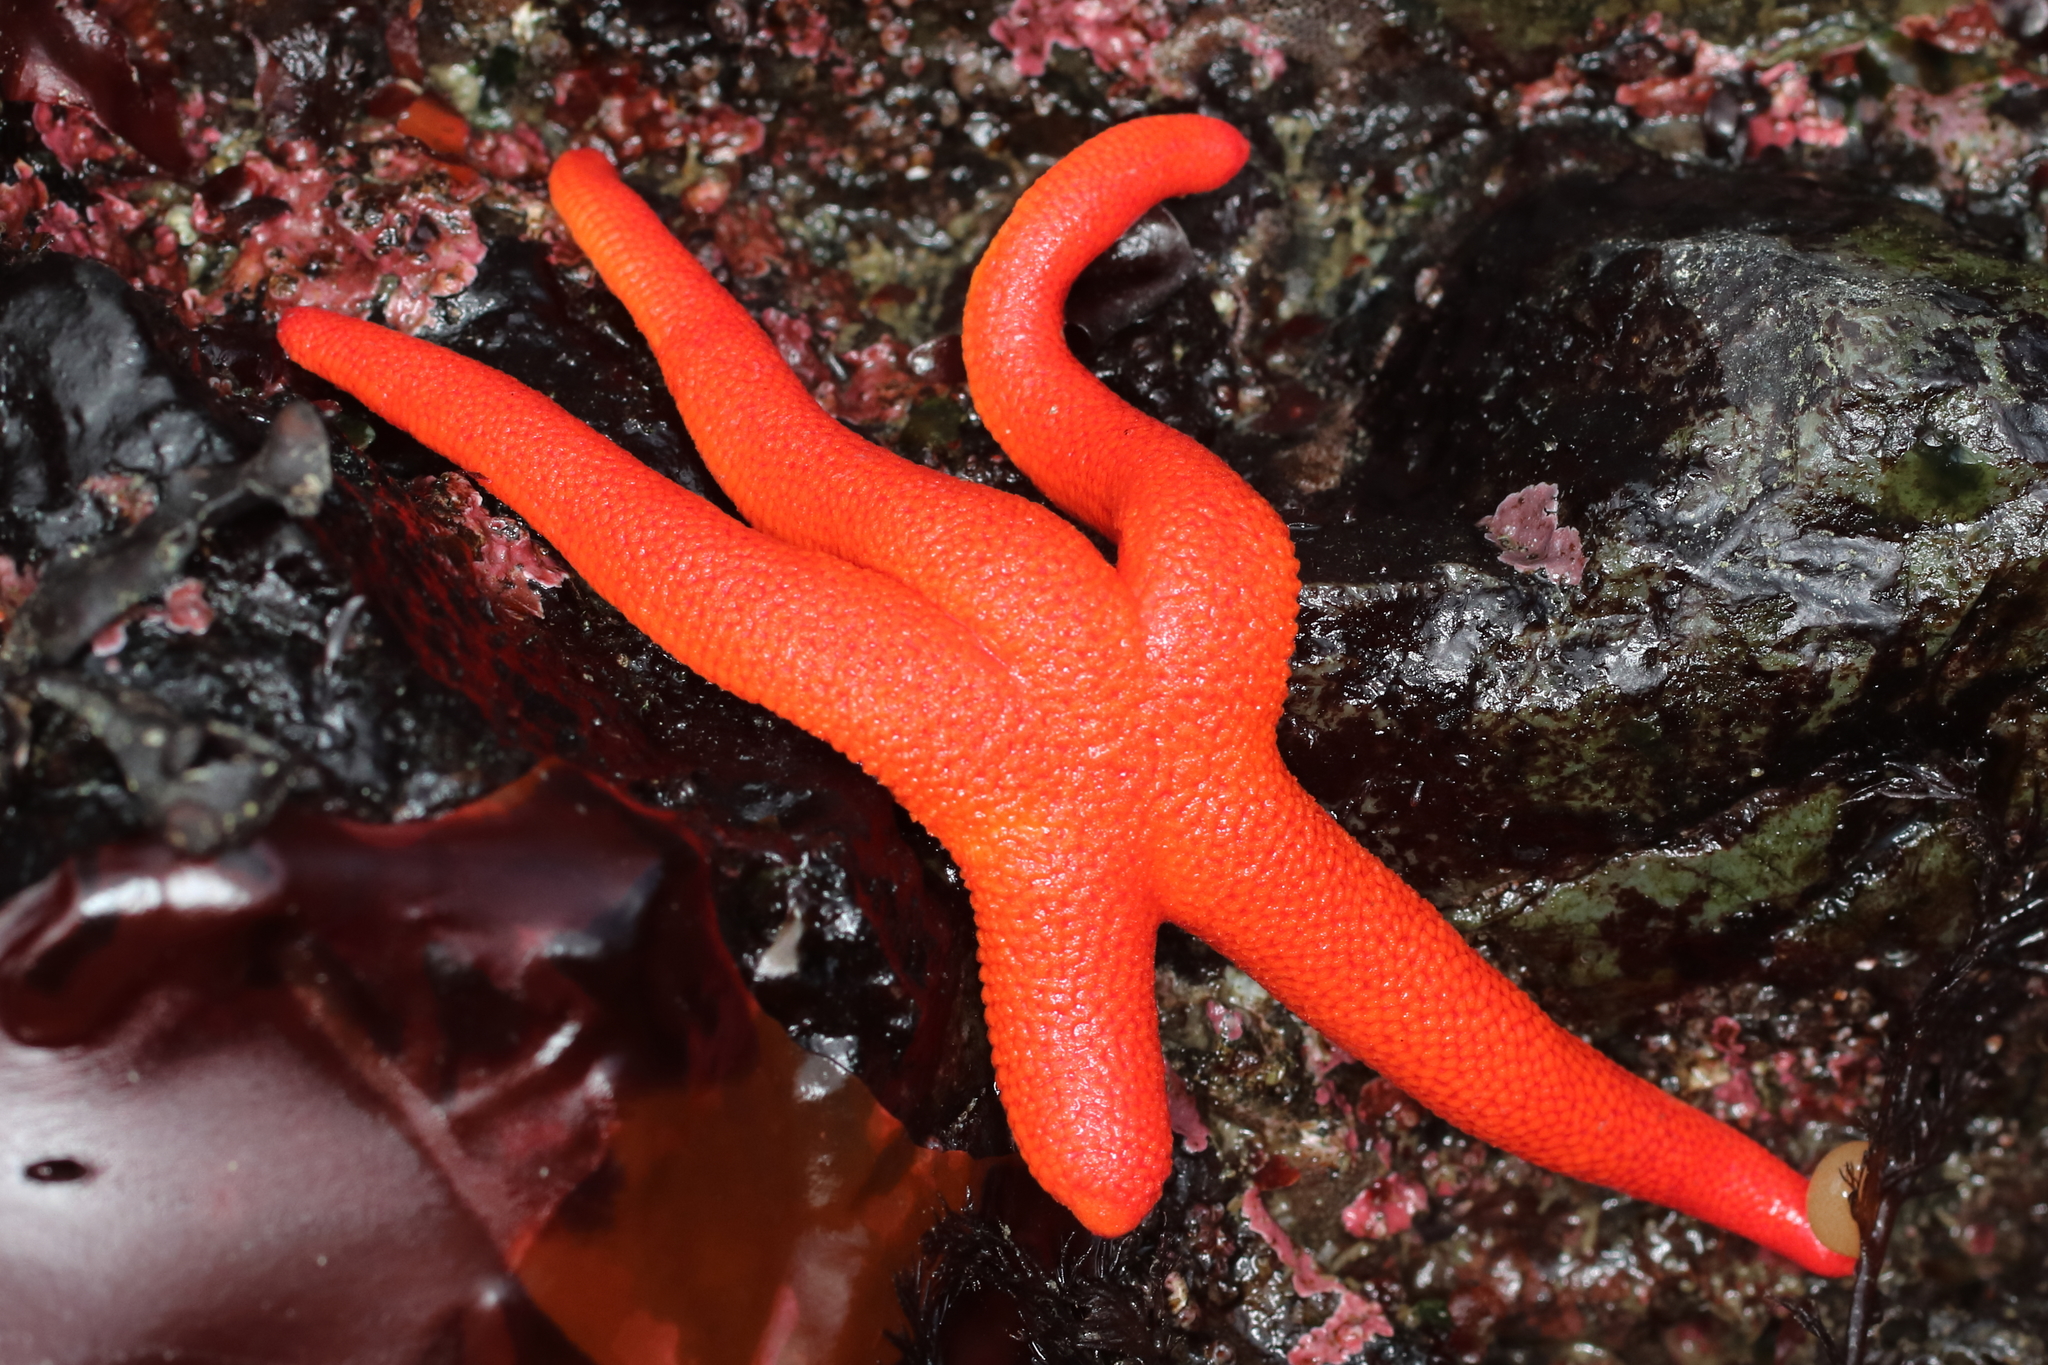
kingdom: Animalia
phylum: Echinodermata
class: Asteroidea
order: Spinulosida
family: Echinasteridae
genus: Henricia
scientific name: Henricia leviuscula
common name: Pacific blood star
